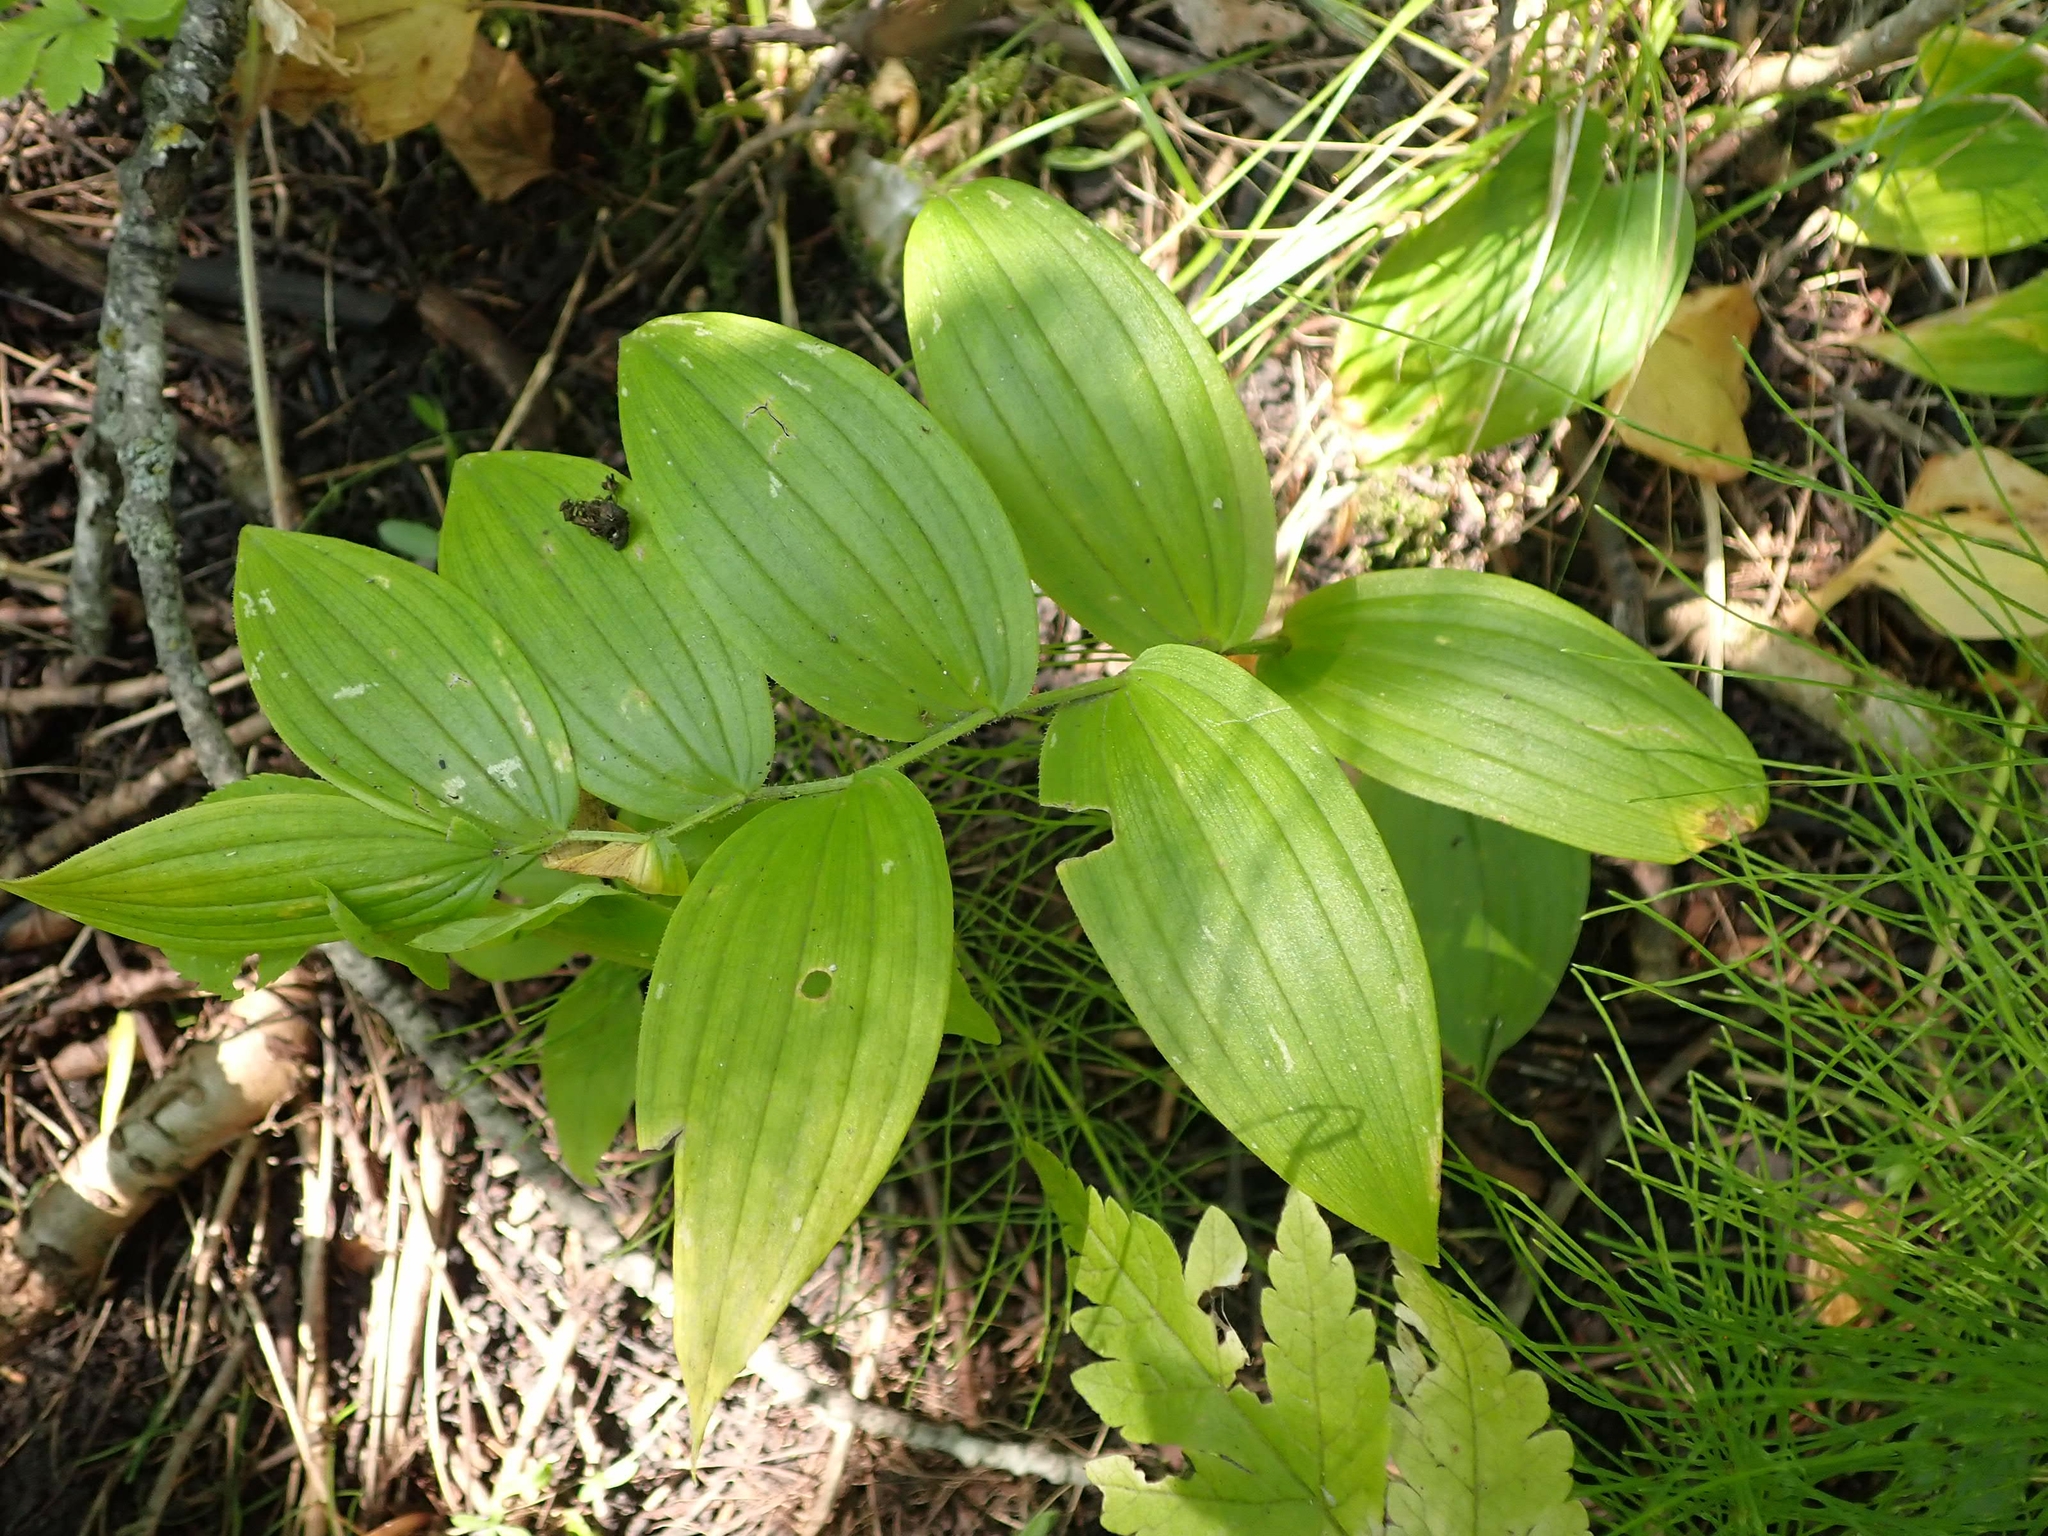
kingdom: Plantae
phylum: Tracheophyta
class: Liliopsida
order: Liliales
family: Liliaceae
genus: Streptopus
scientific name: Streptopus lanceolatus
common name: Rose mandarin
